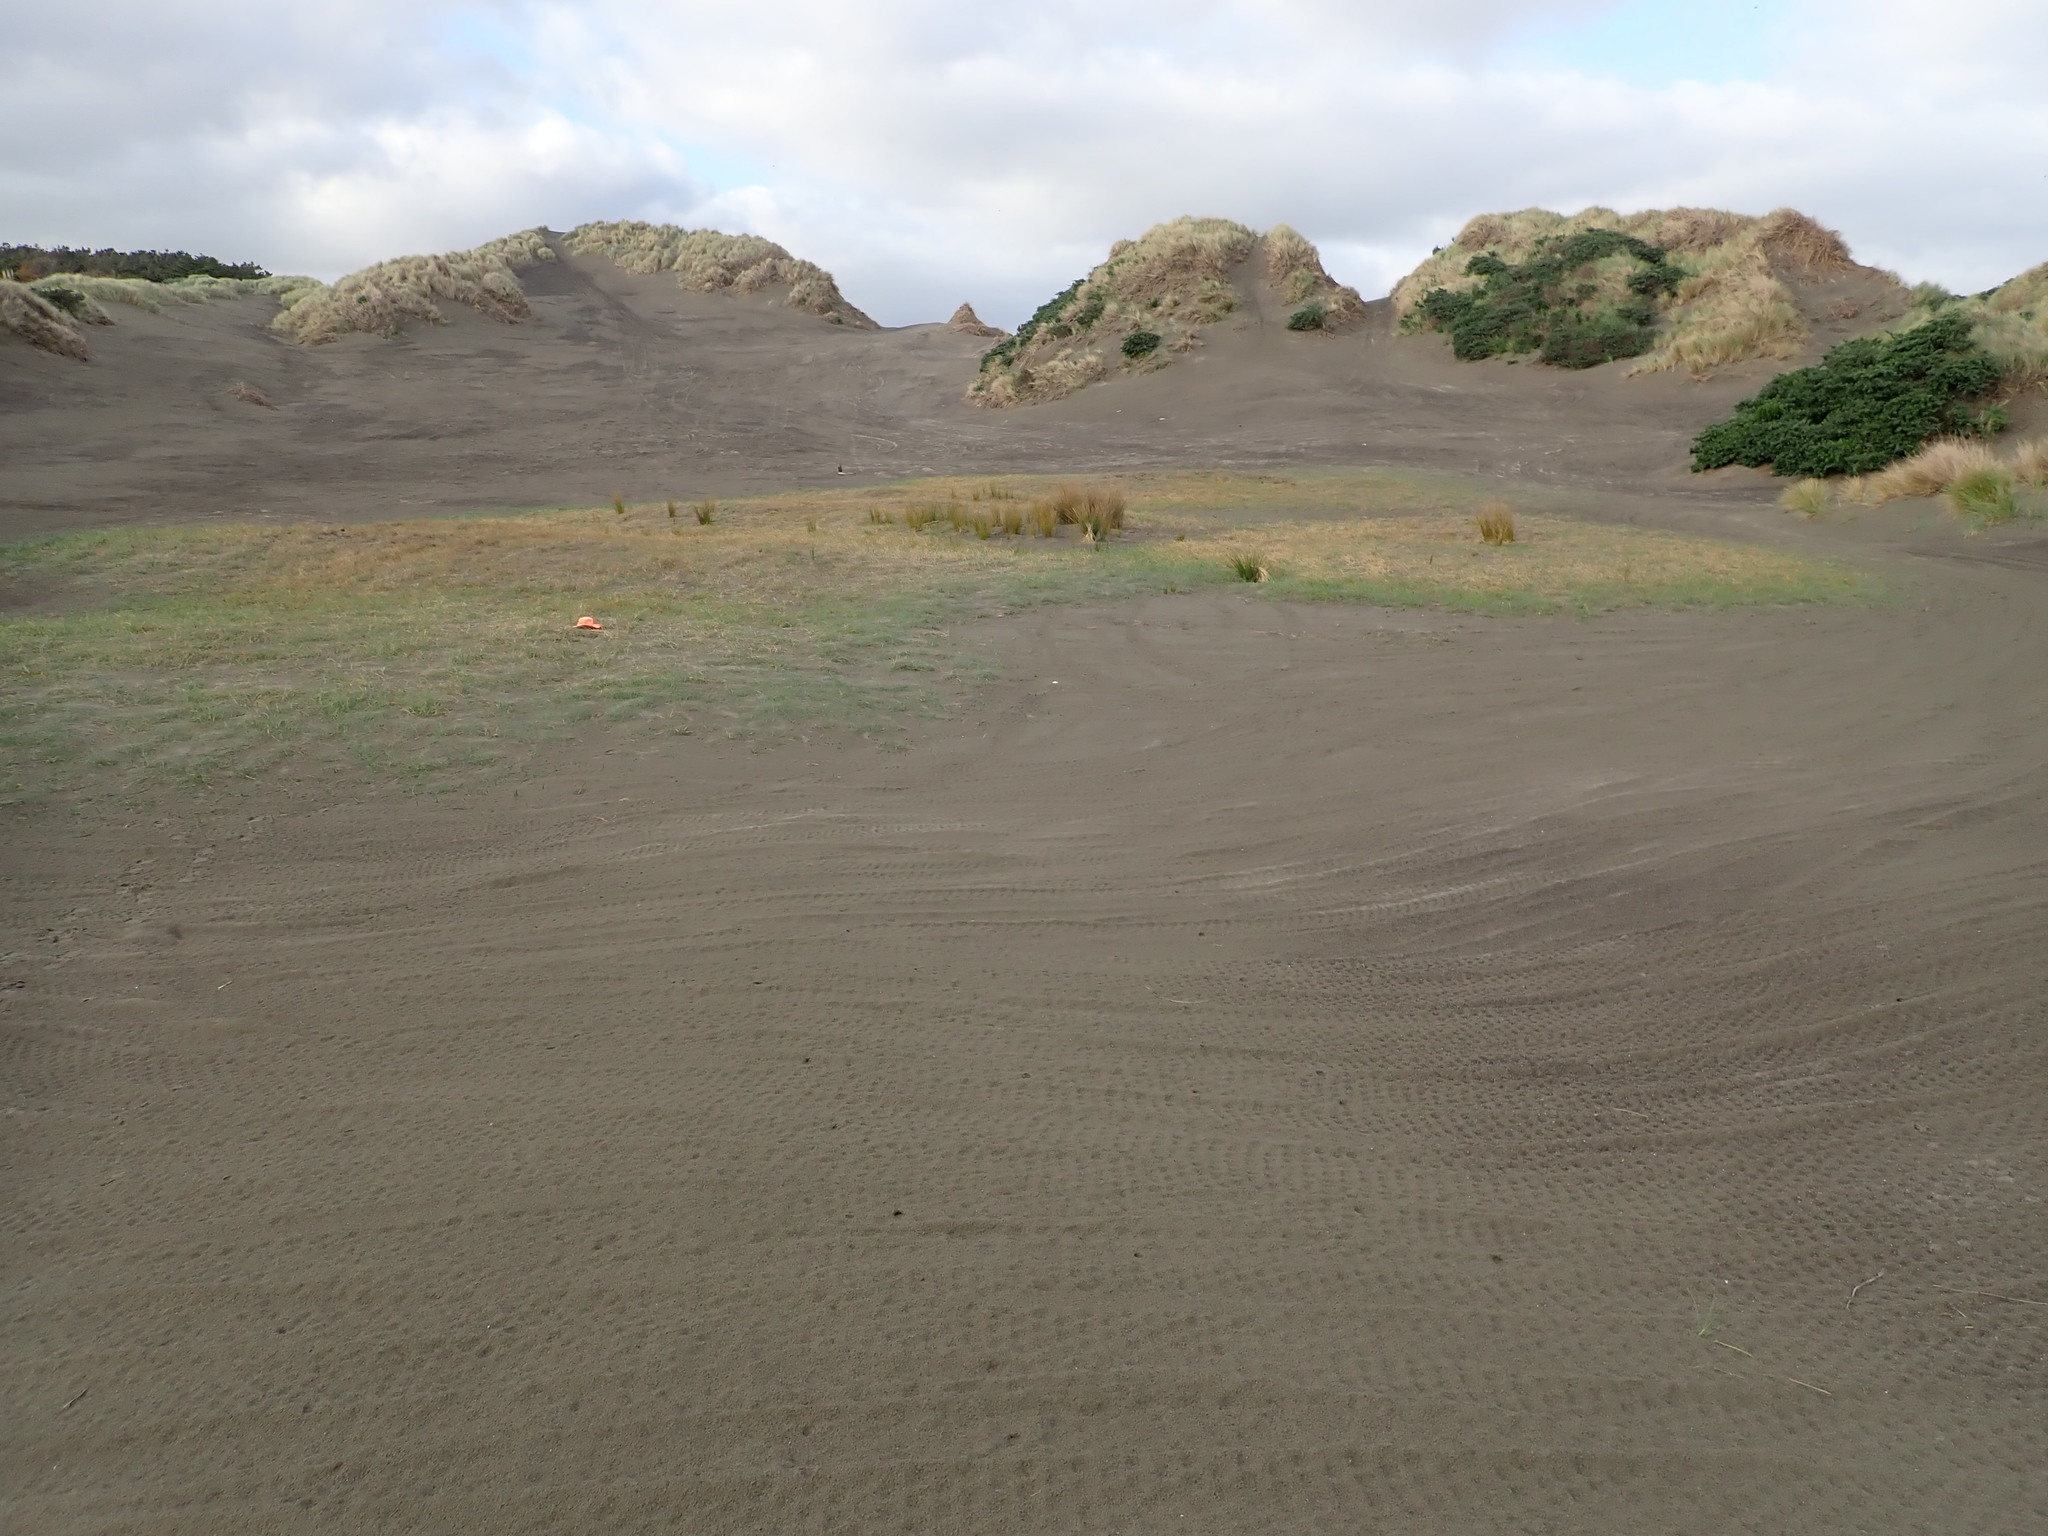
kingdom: Plantae
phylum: Tracheophyta
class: Liliopsida
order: Poales
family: Poaceae
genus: Calamagrostis
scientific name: Calamagrostis arenaria
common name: European beachgrass
